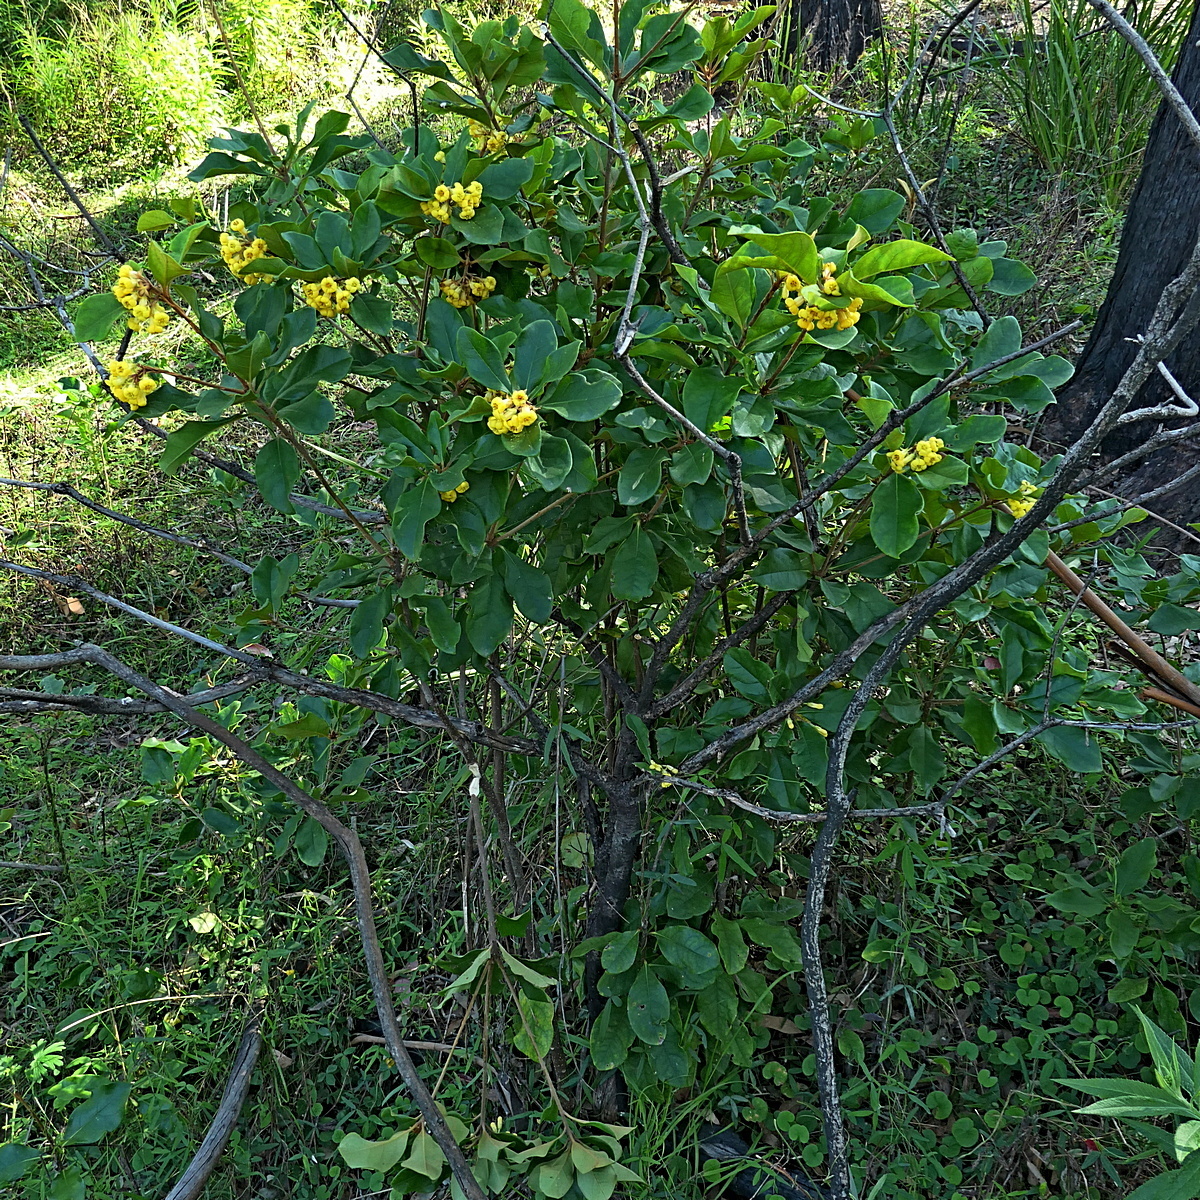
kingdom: Plantae
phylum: Tracheophyta
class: Magnoliopsida
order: Apiales
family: Pittosporaceae
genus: Pittosporum
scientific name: Pittosporum revolutum
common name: Brisbane-laurel
